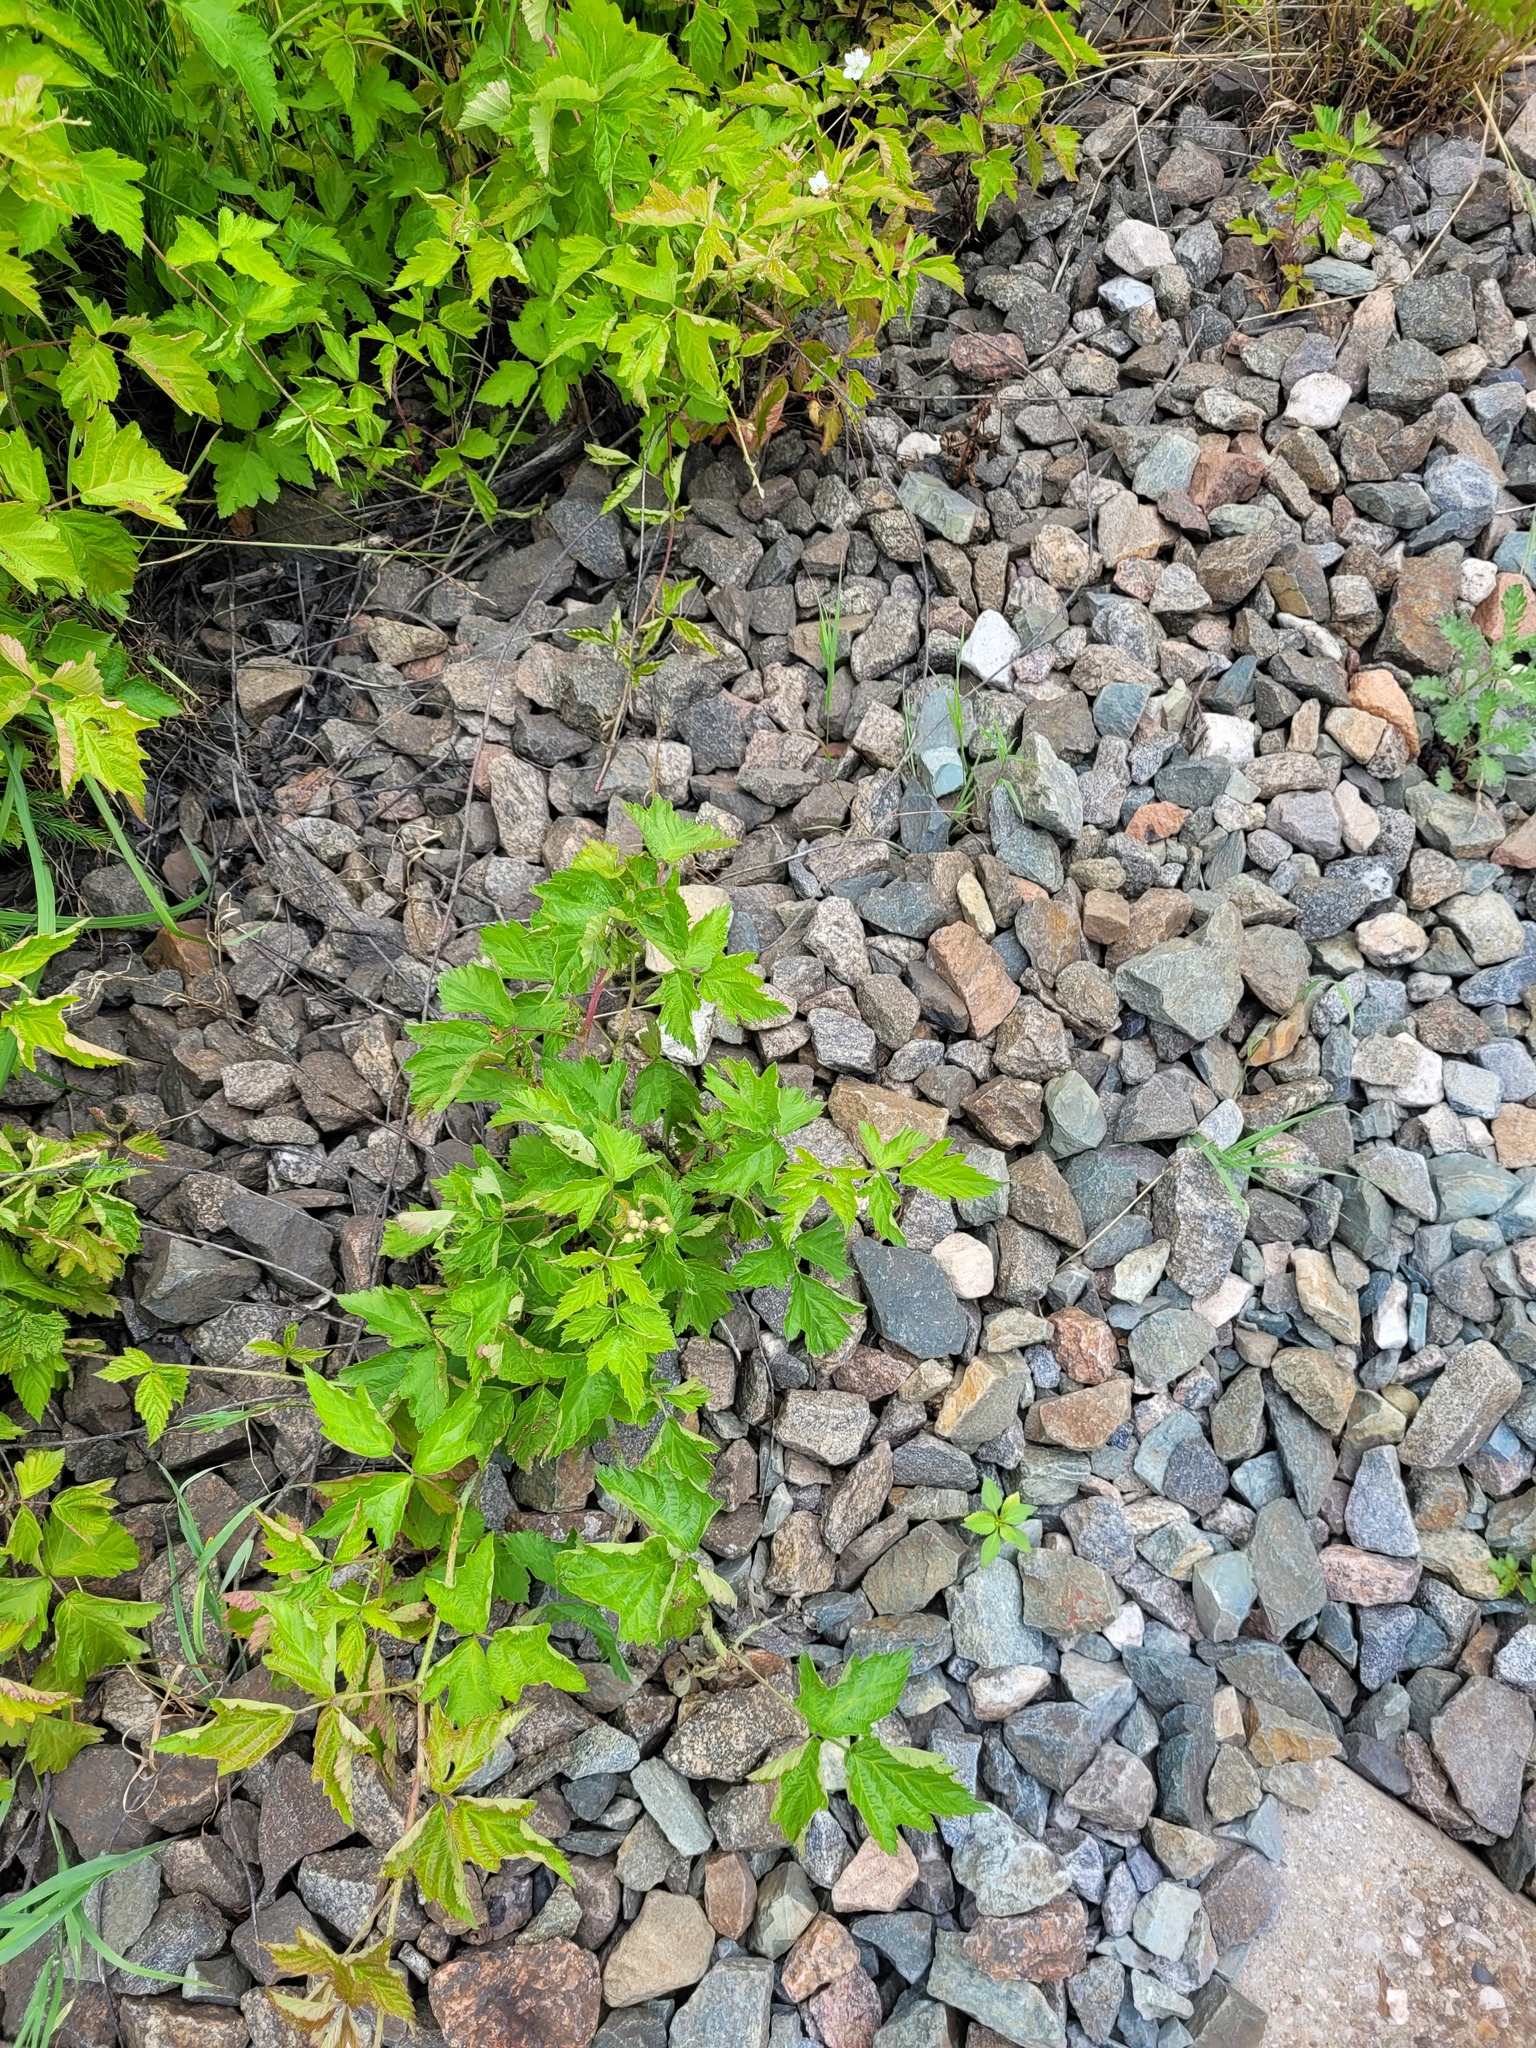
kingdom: Plantae
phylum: Tracheophyta
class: Magnoliopsida
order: Rosales
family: Rosaceae
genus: Rubus
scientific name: Rubus caesius
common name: Dewberry
